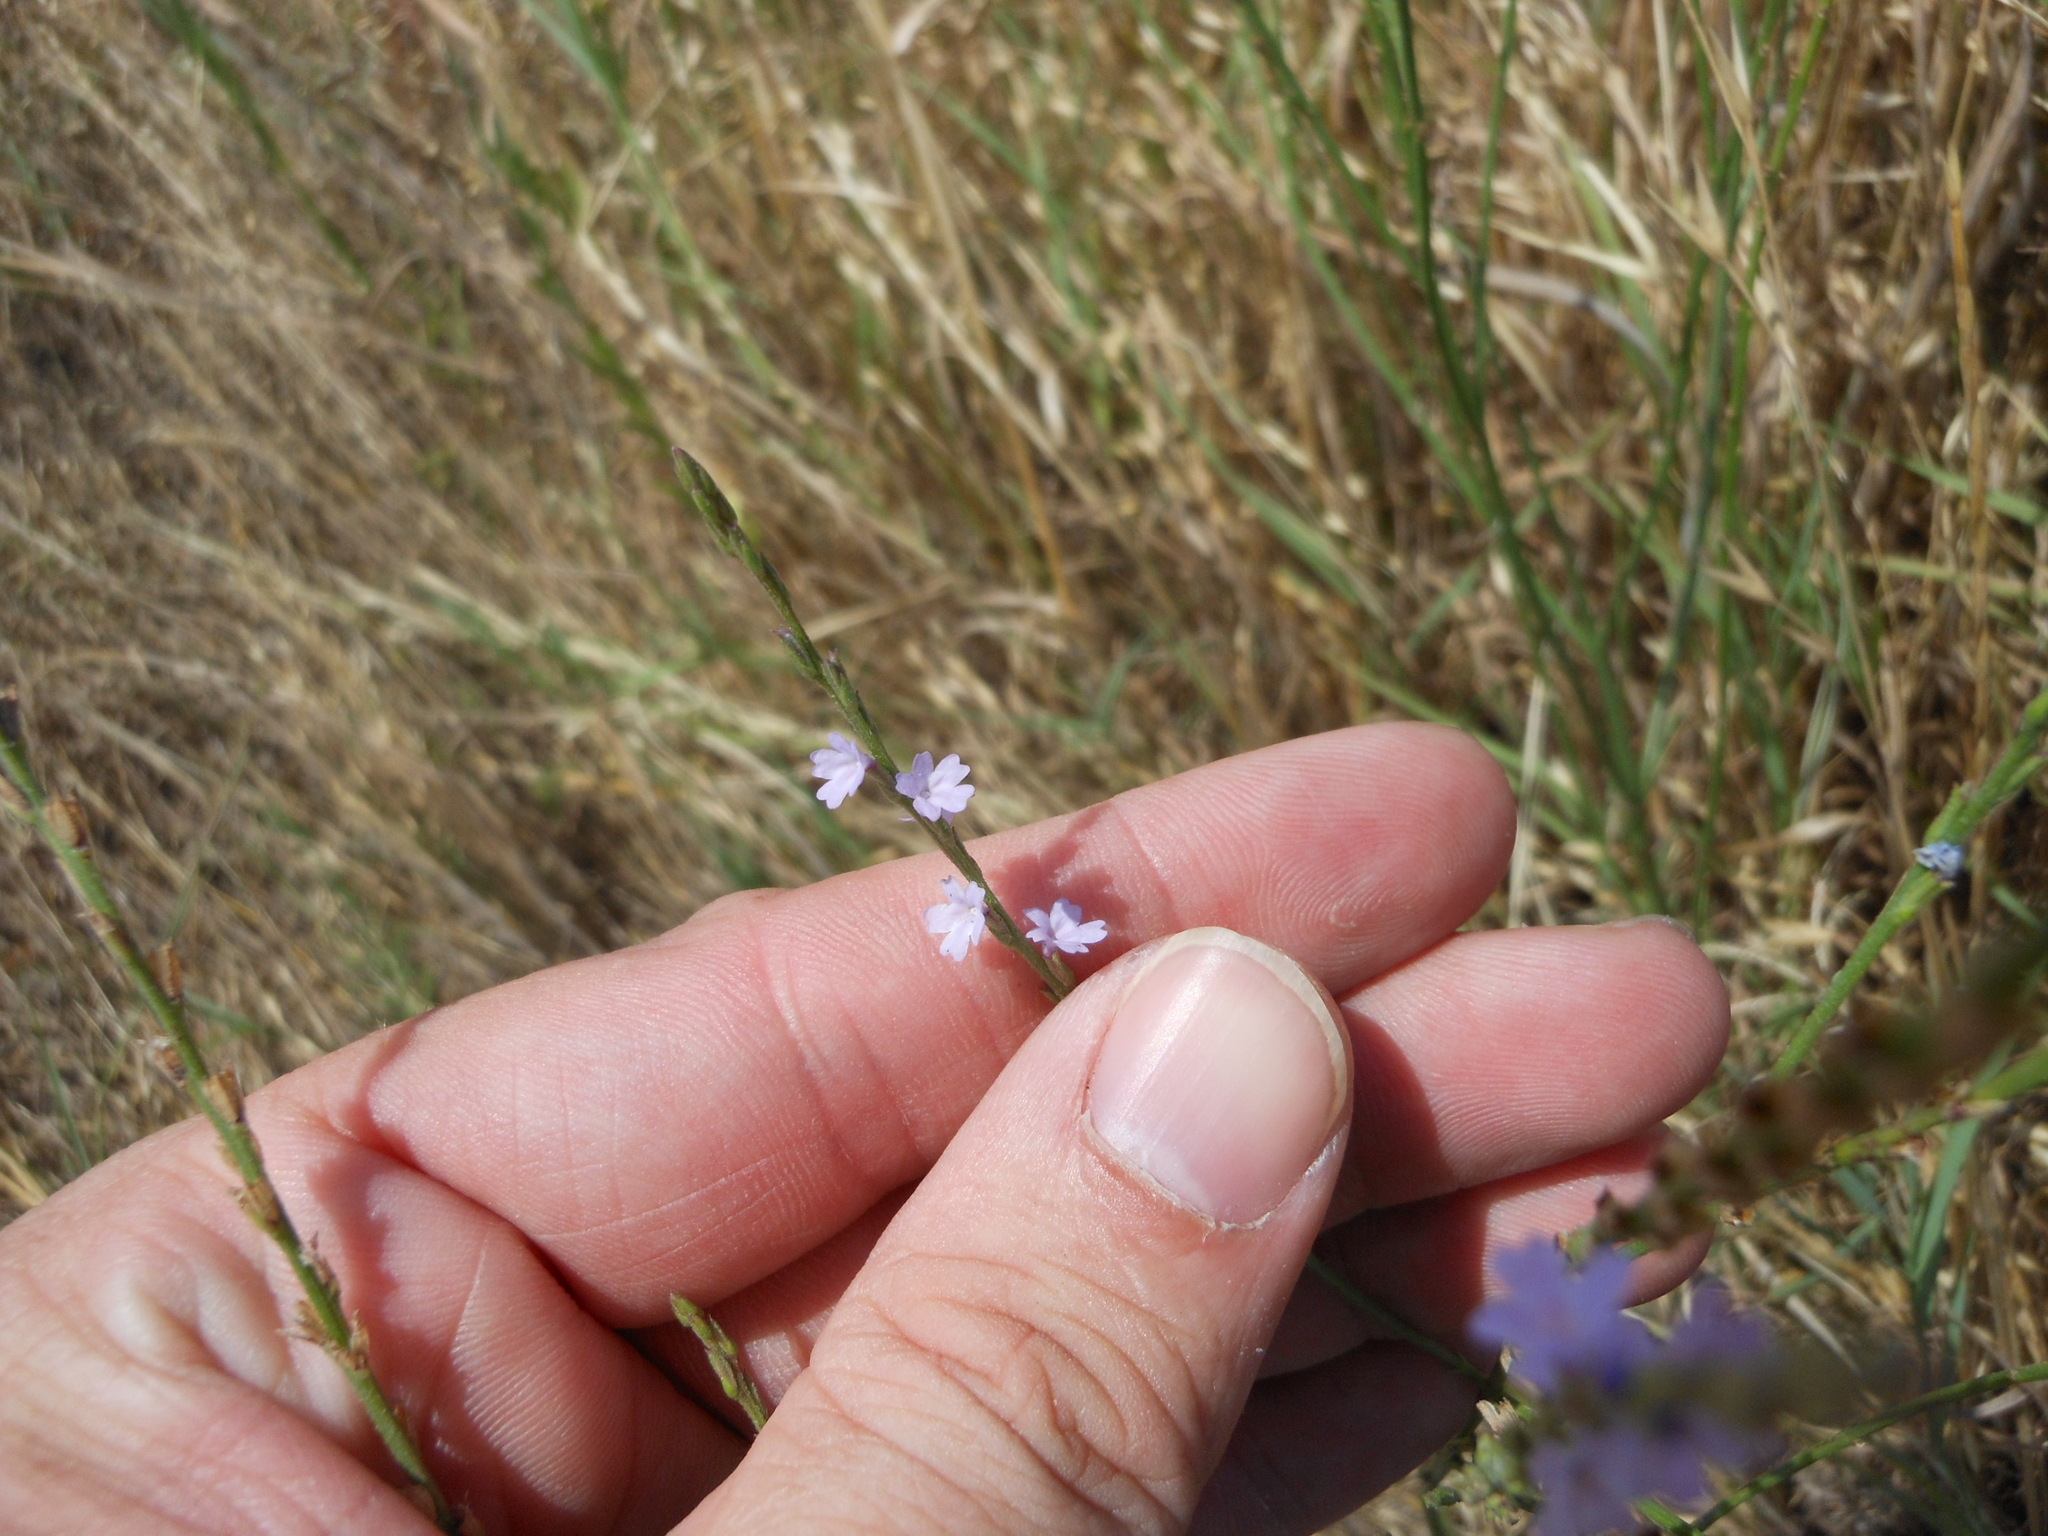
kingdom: Plantae
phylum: Tracheophyta
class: Magnoliopsida
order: Lamiales
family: Verbenaceae
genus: Verbena
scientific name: Verbena halei
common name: Texas vervain
